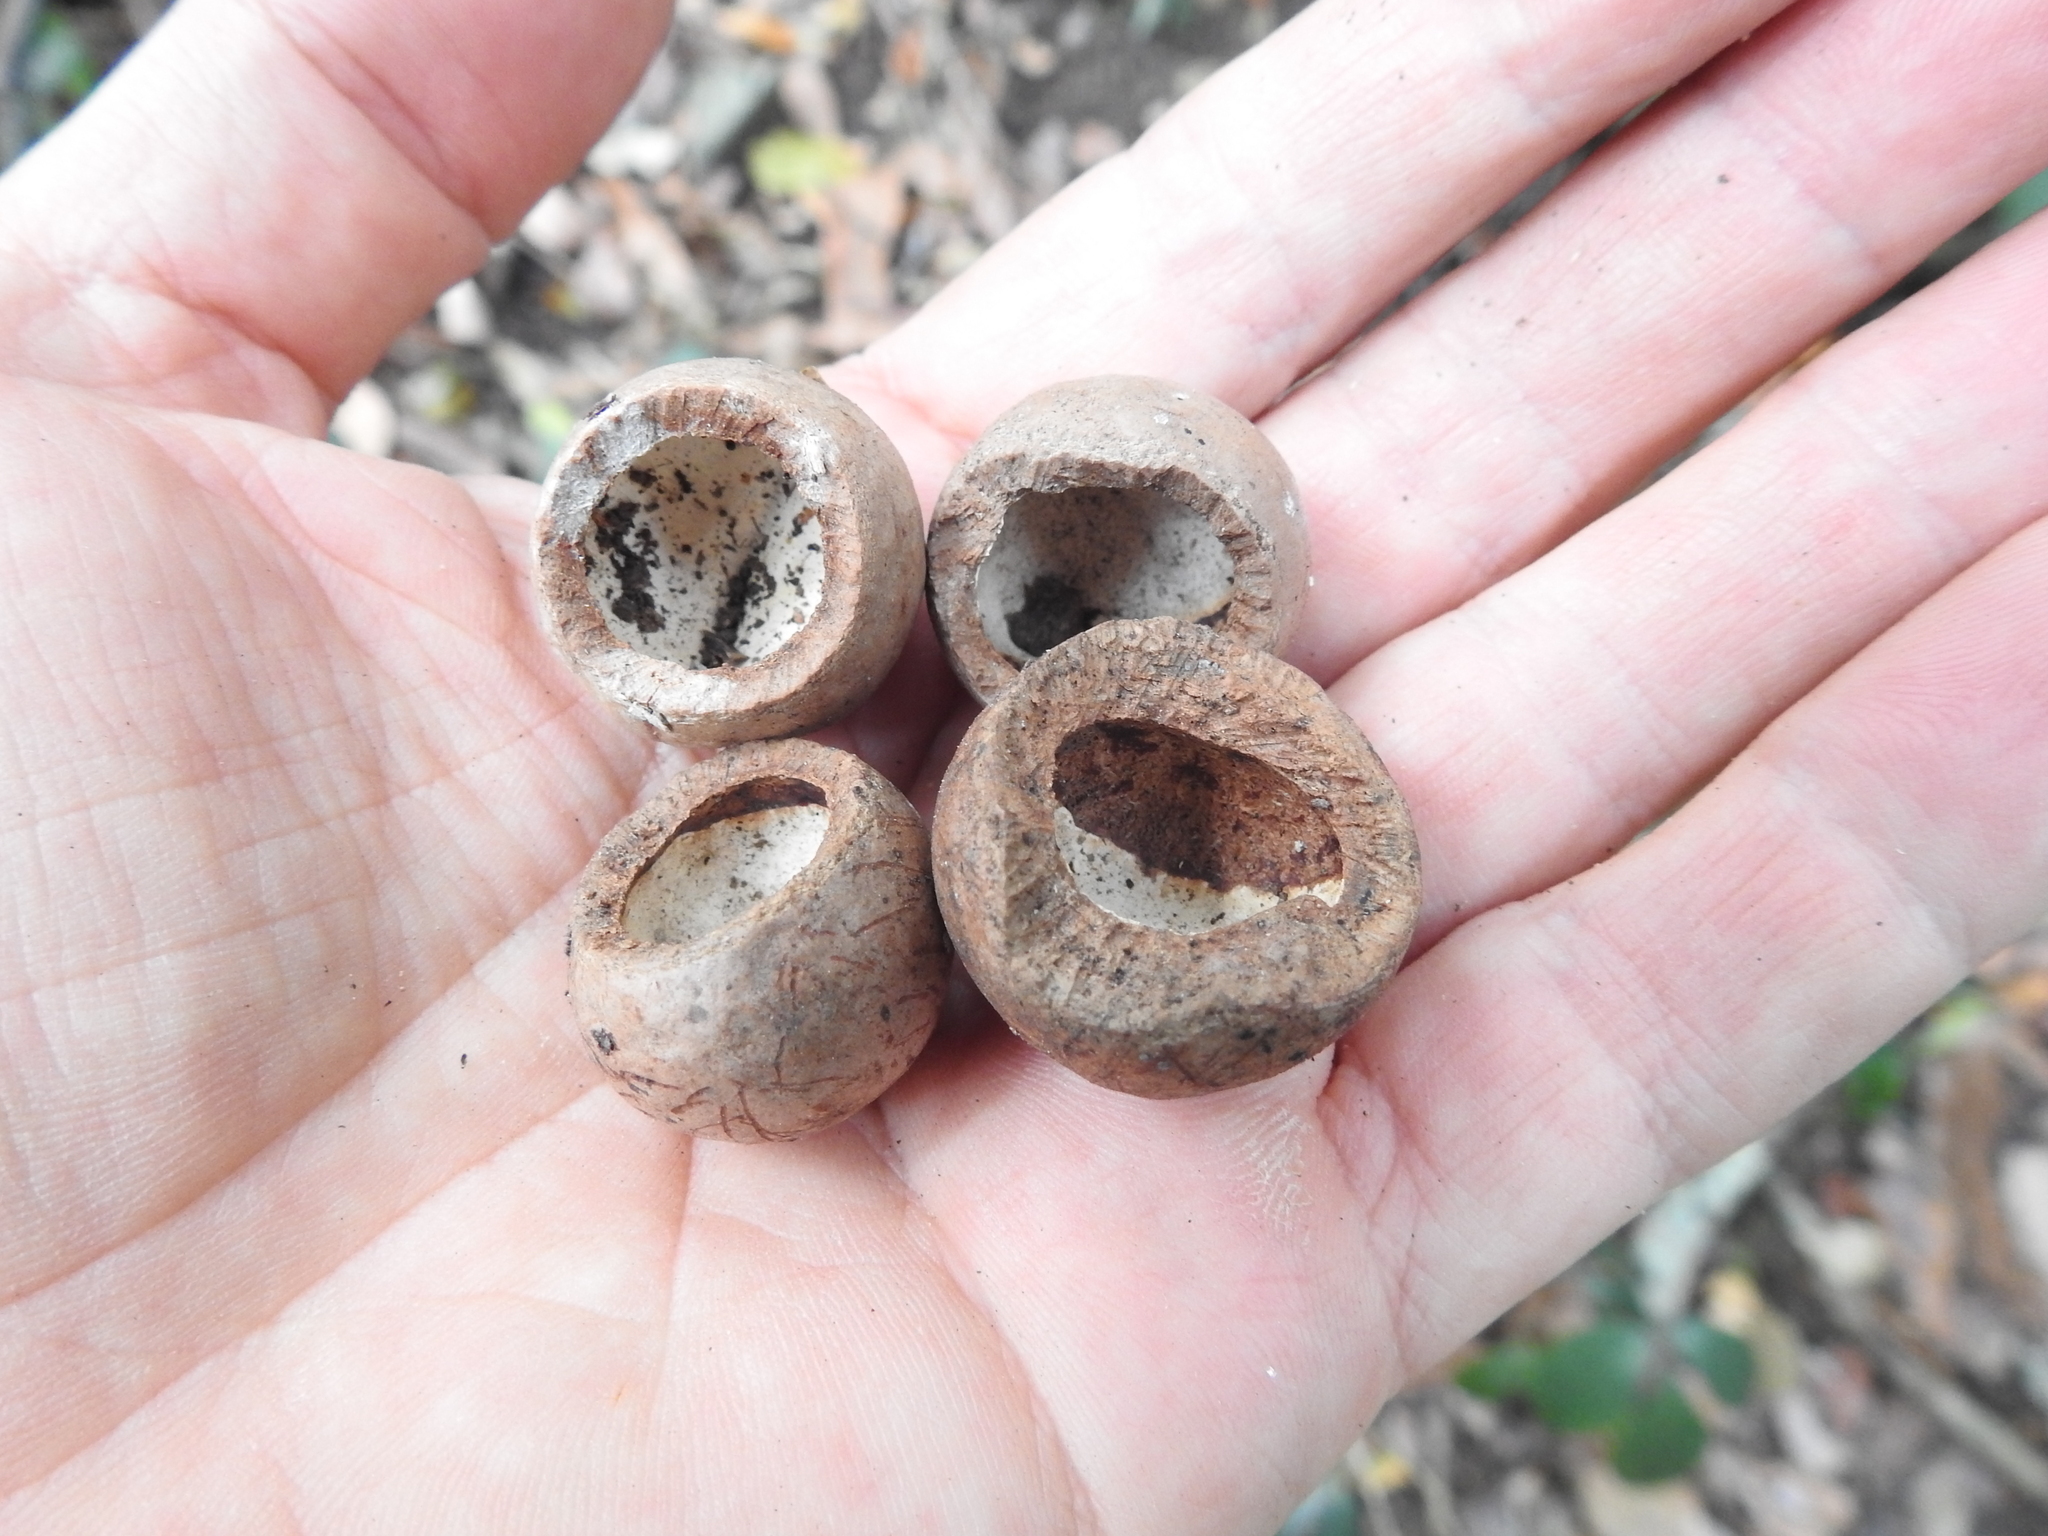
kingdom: Plantae
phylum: Tracheophyta
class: Magnoliopsida
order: Proteales
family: Proteaceae
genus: Macadamia
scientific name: Macadamia integrifolia
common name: Macadamia
